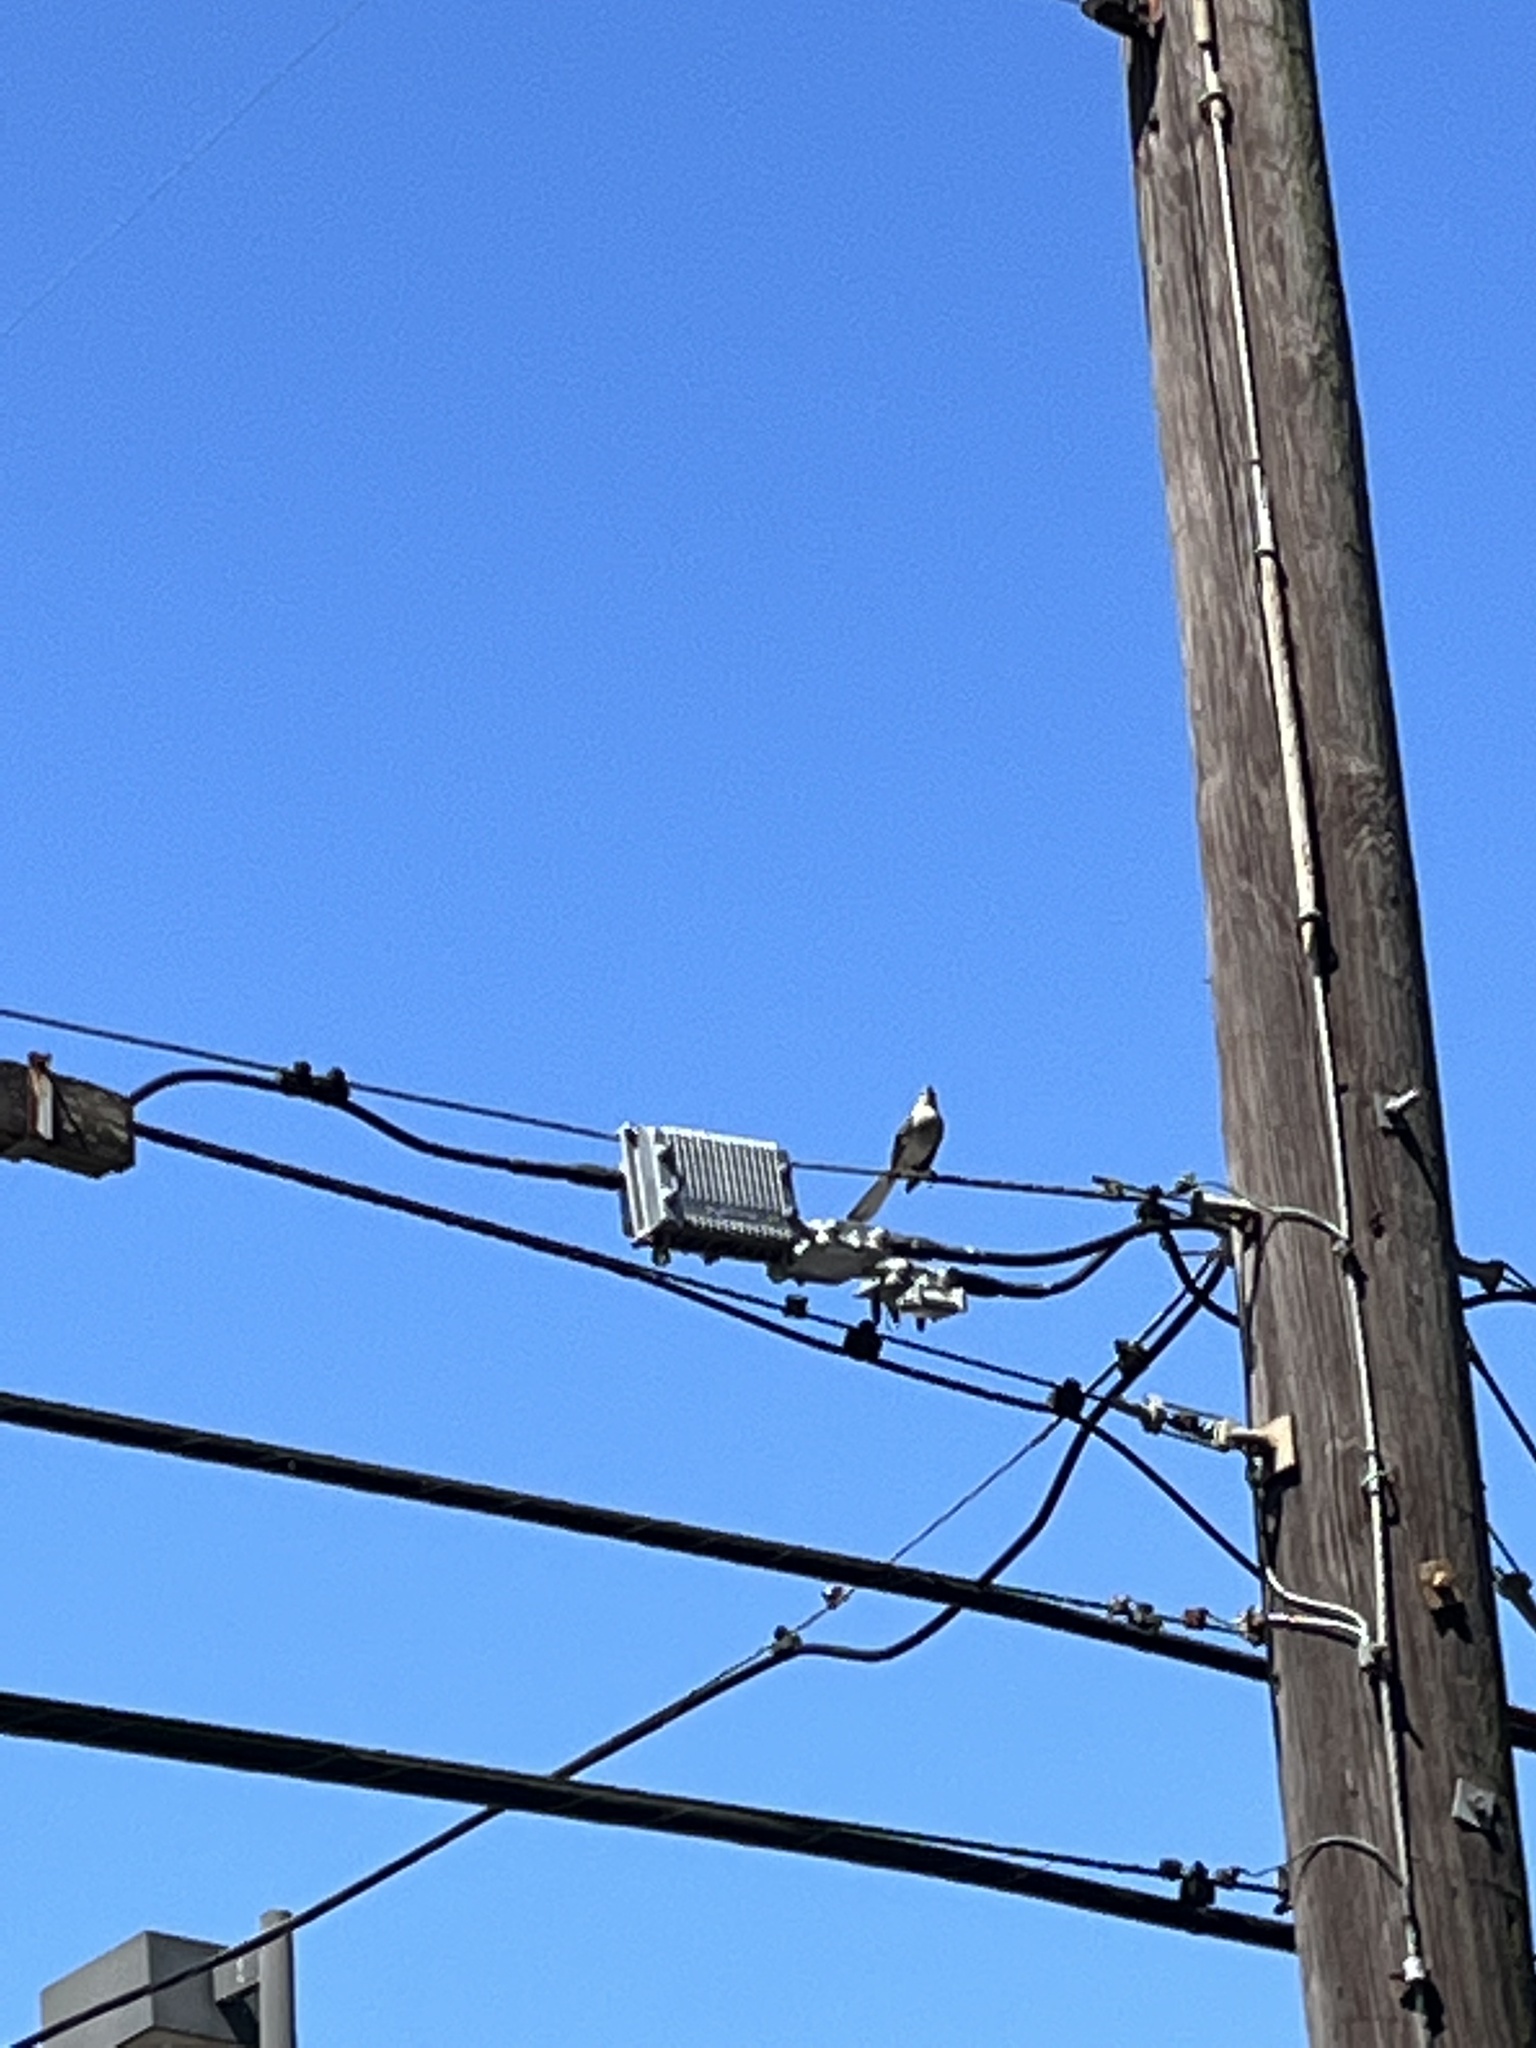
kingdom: Animalia
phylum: Chordata
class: Aves
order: Passeriformes
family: Mimidae
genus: Mimus
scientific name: Mimus polyglottos
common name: Northern mockingbird
